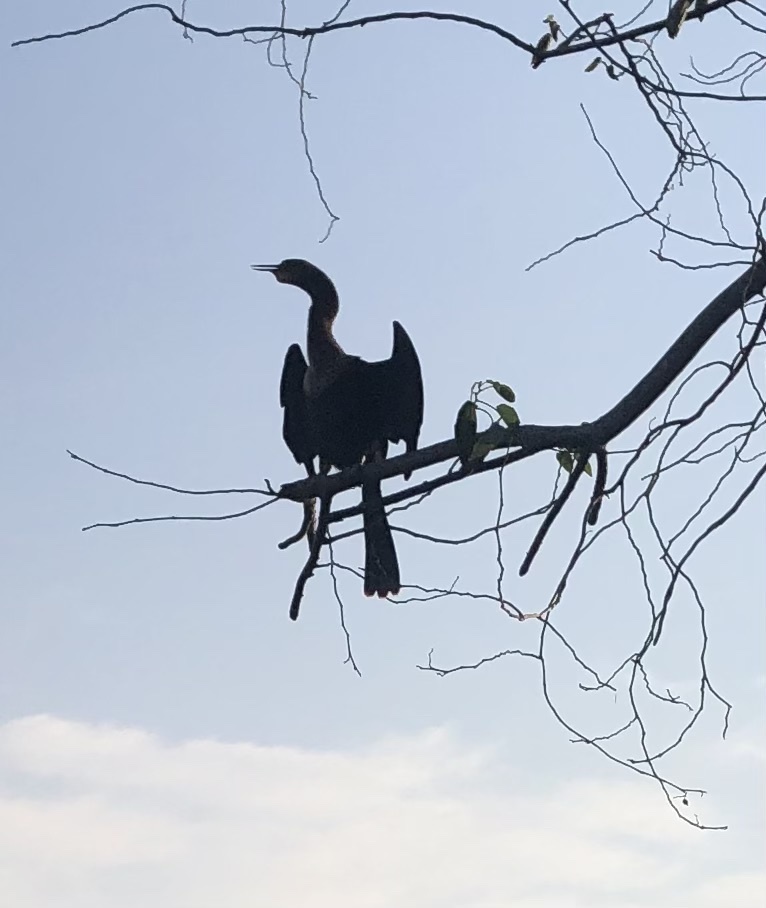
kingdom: Animalia
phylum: Chordata
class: Aves
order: Suliformes
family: Anhingidae
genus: Anhinga
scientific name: Anhinga anhinga
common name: Anhinga
